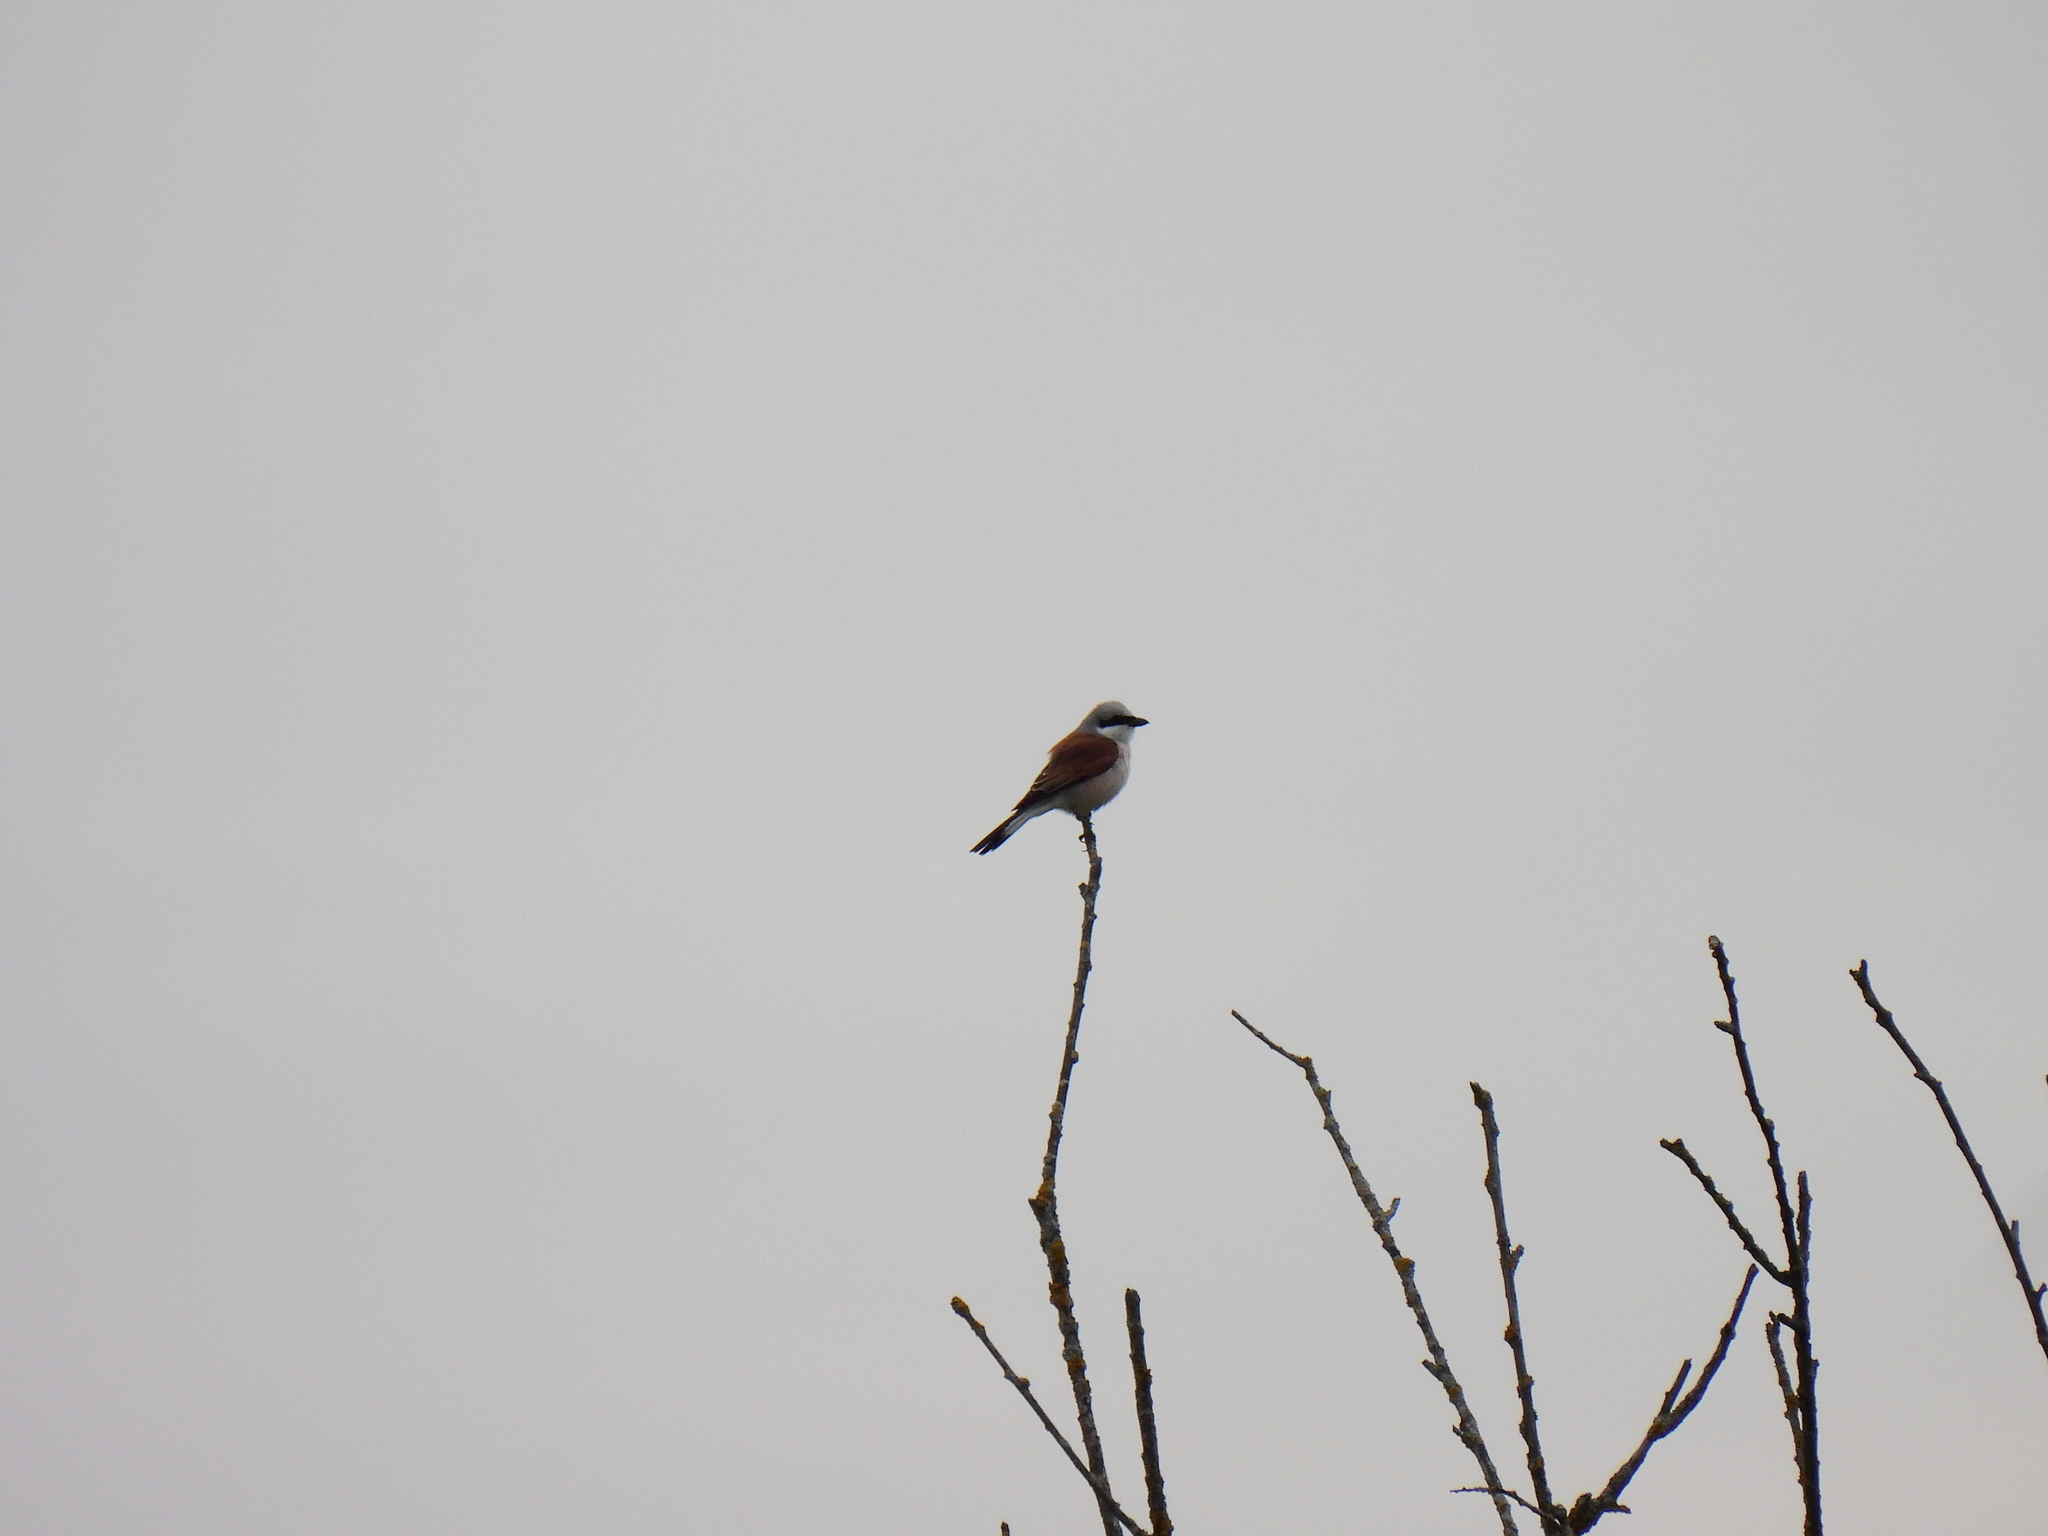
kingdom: Animalia
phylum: Chordata
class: Aves
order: Passeriformes
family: Laniidae
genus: Lanius
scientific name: Lanius collurio
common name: Red-backed shrike
